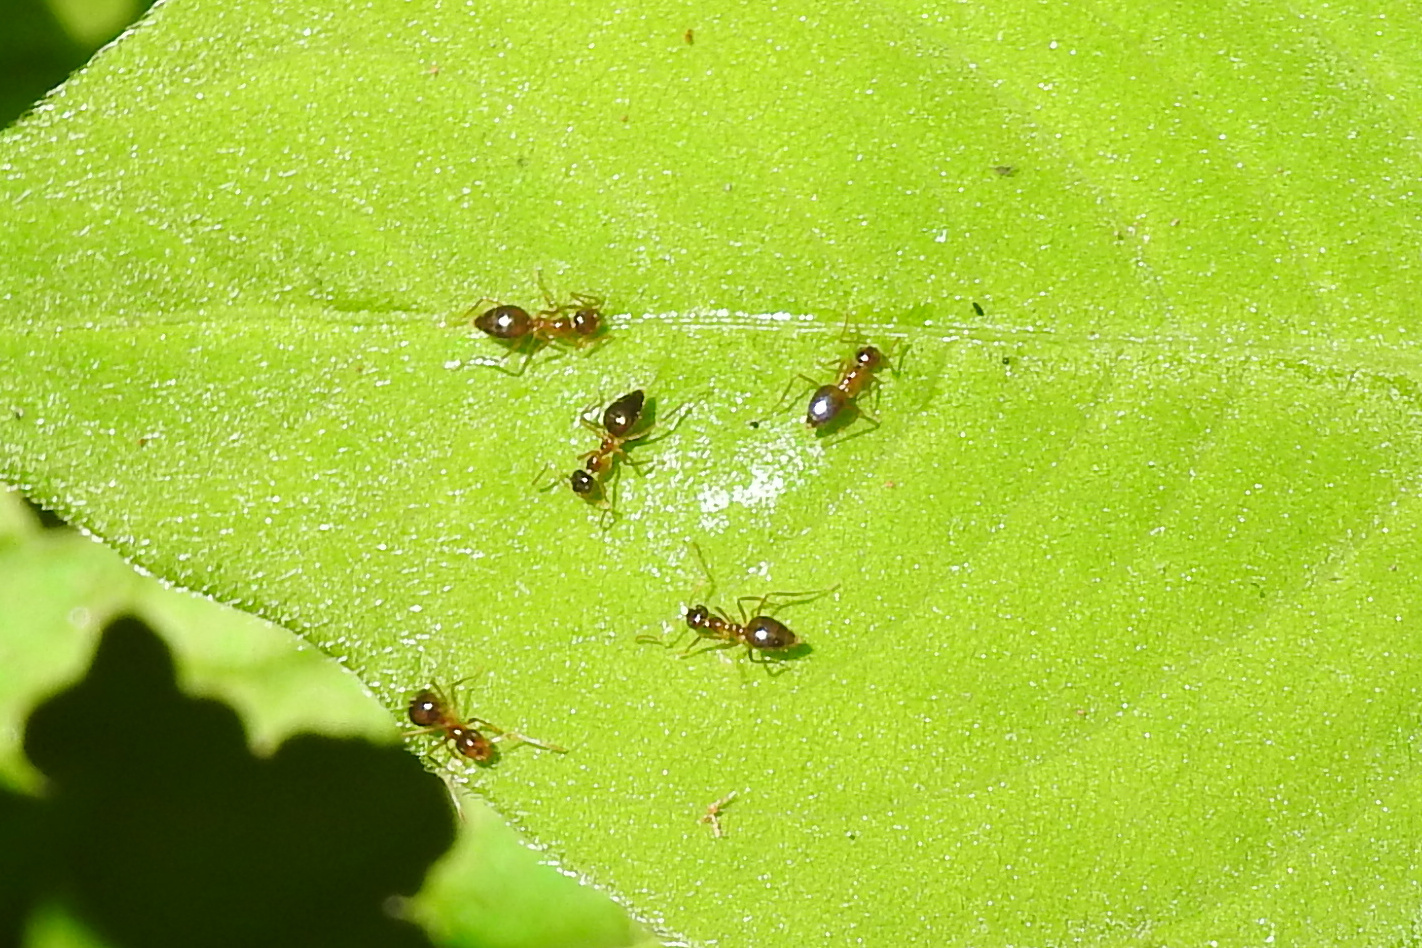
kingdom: Animalia
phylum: Arthropoda
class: Insecta
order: Hymenoptera
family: Formicidae
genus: Prenolepis
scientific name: Prenolepis imparis
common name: Small honey ant
